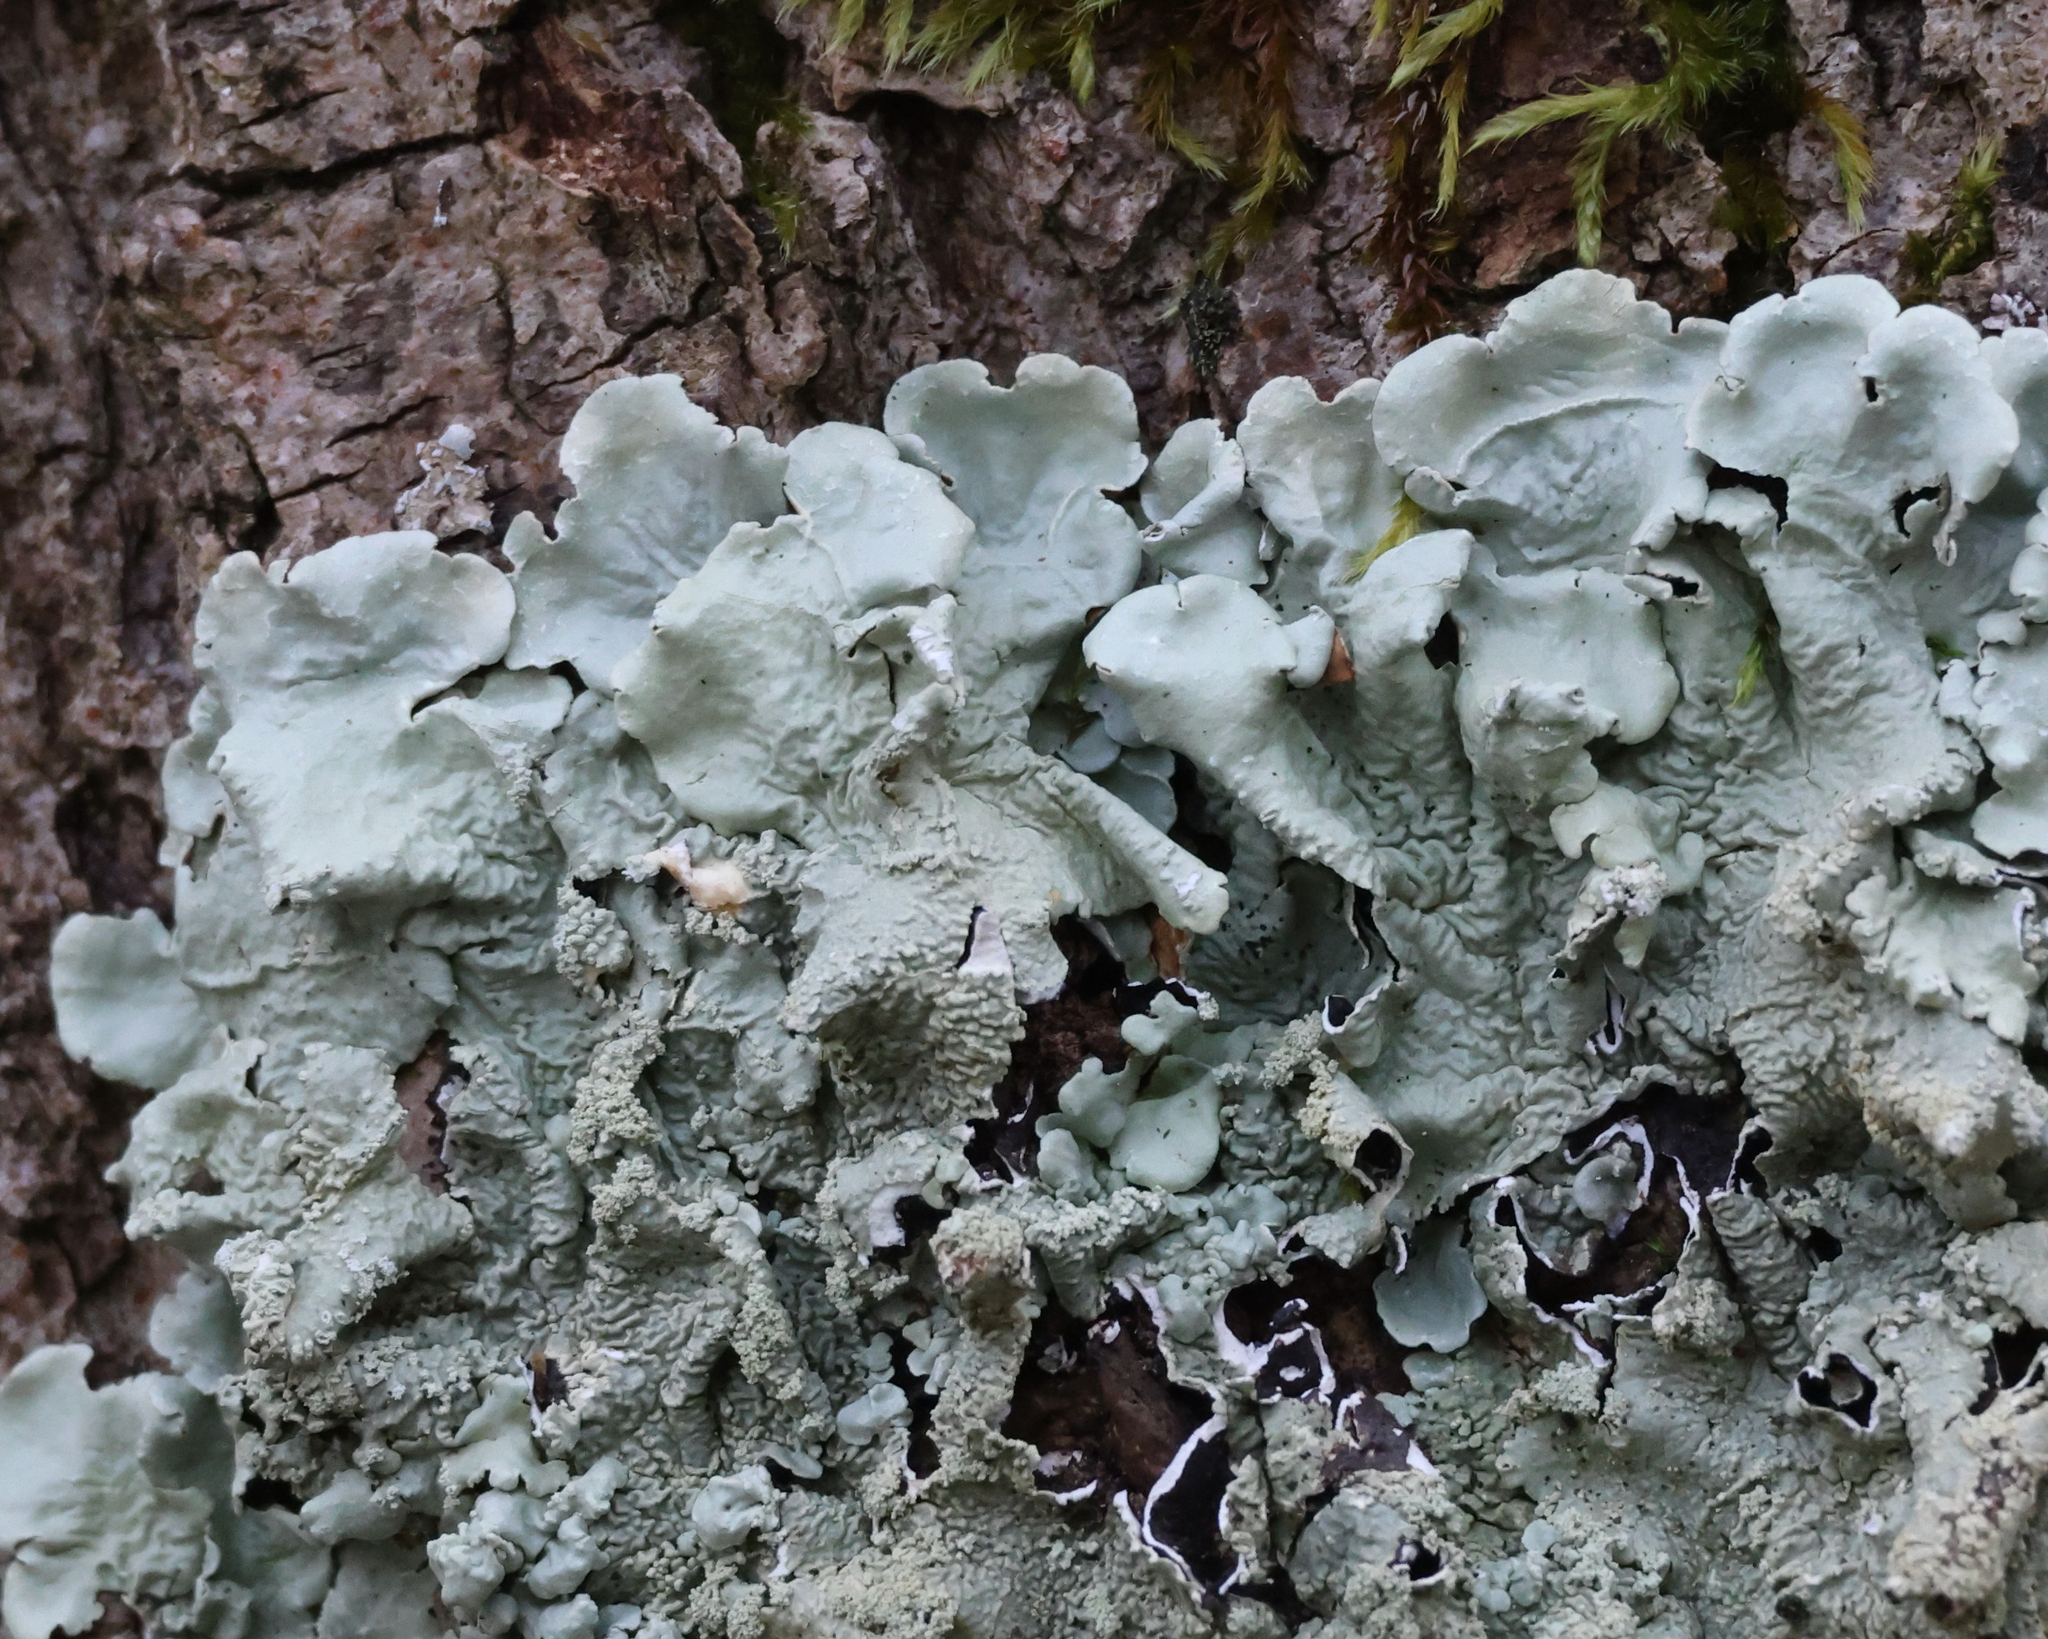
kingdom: Fungi
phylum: Ascomycota
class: Lecanoromycetes
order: Lecanorales
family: Parmeliaceae
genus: Flavoparmelia
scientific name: Flavoparmelia caperata
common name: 40-mile per hour lichen
